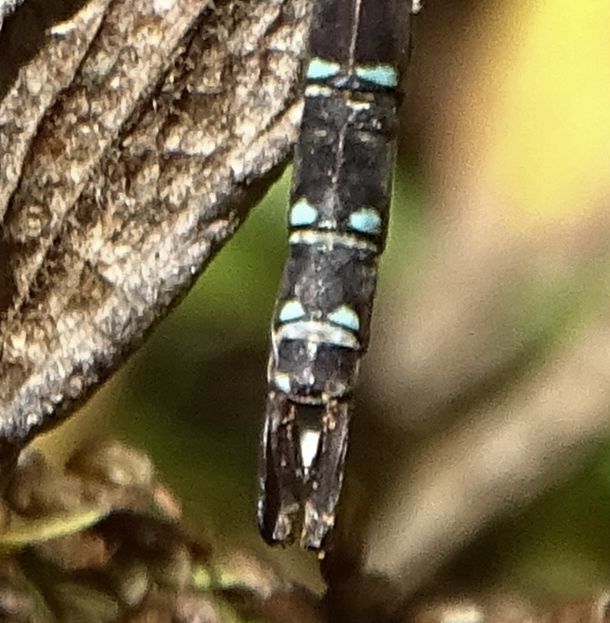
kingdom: Animalia
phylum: Arthropoda
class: Insecta
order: Odonata
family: Aeshnidae
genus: Aeshna
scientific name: Aeshna umbrosa
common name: Shadow darner
